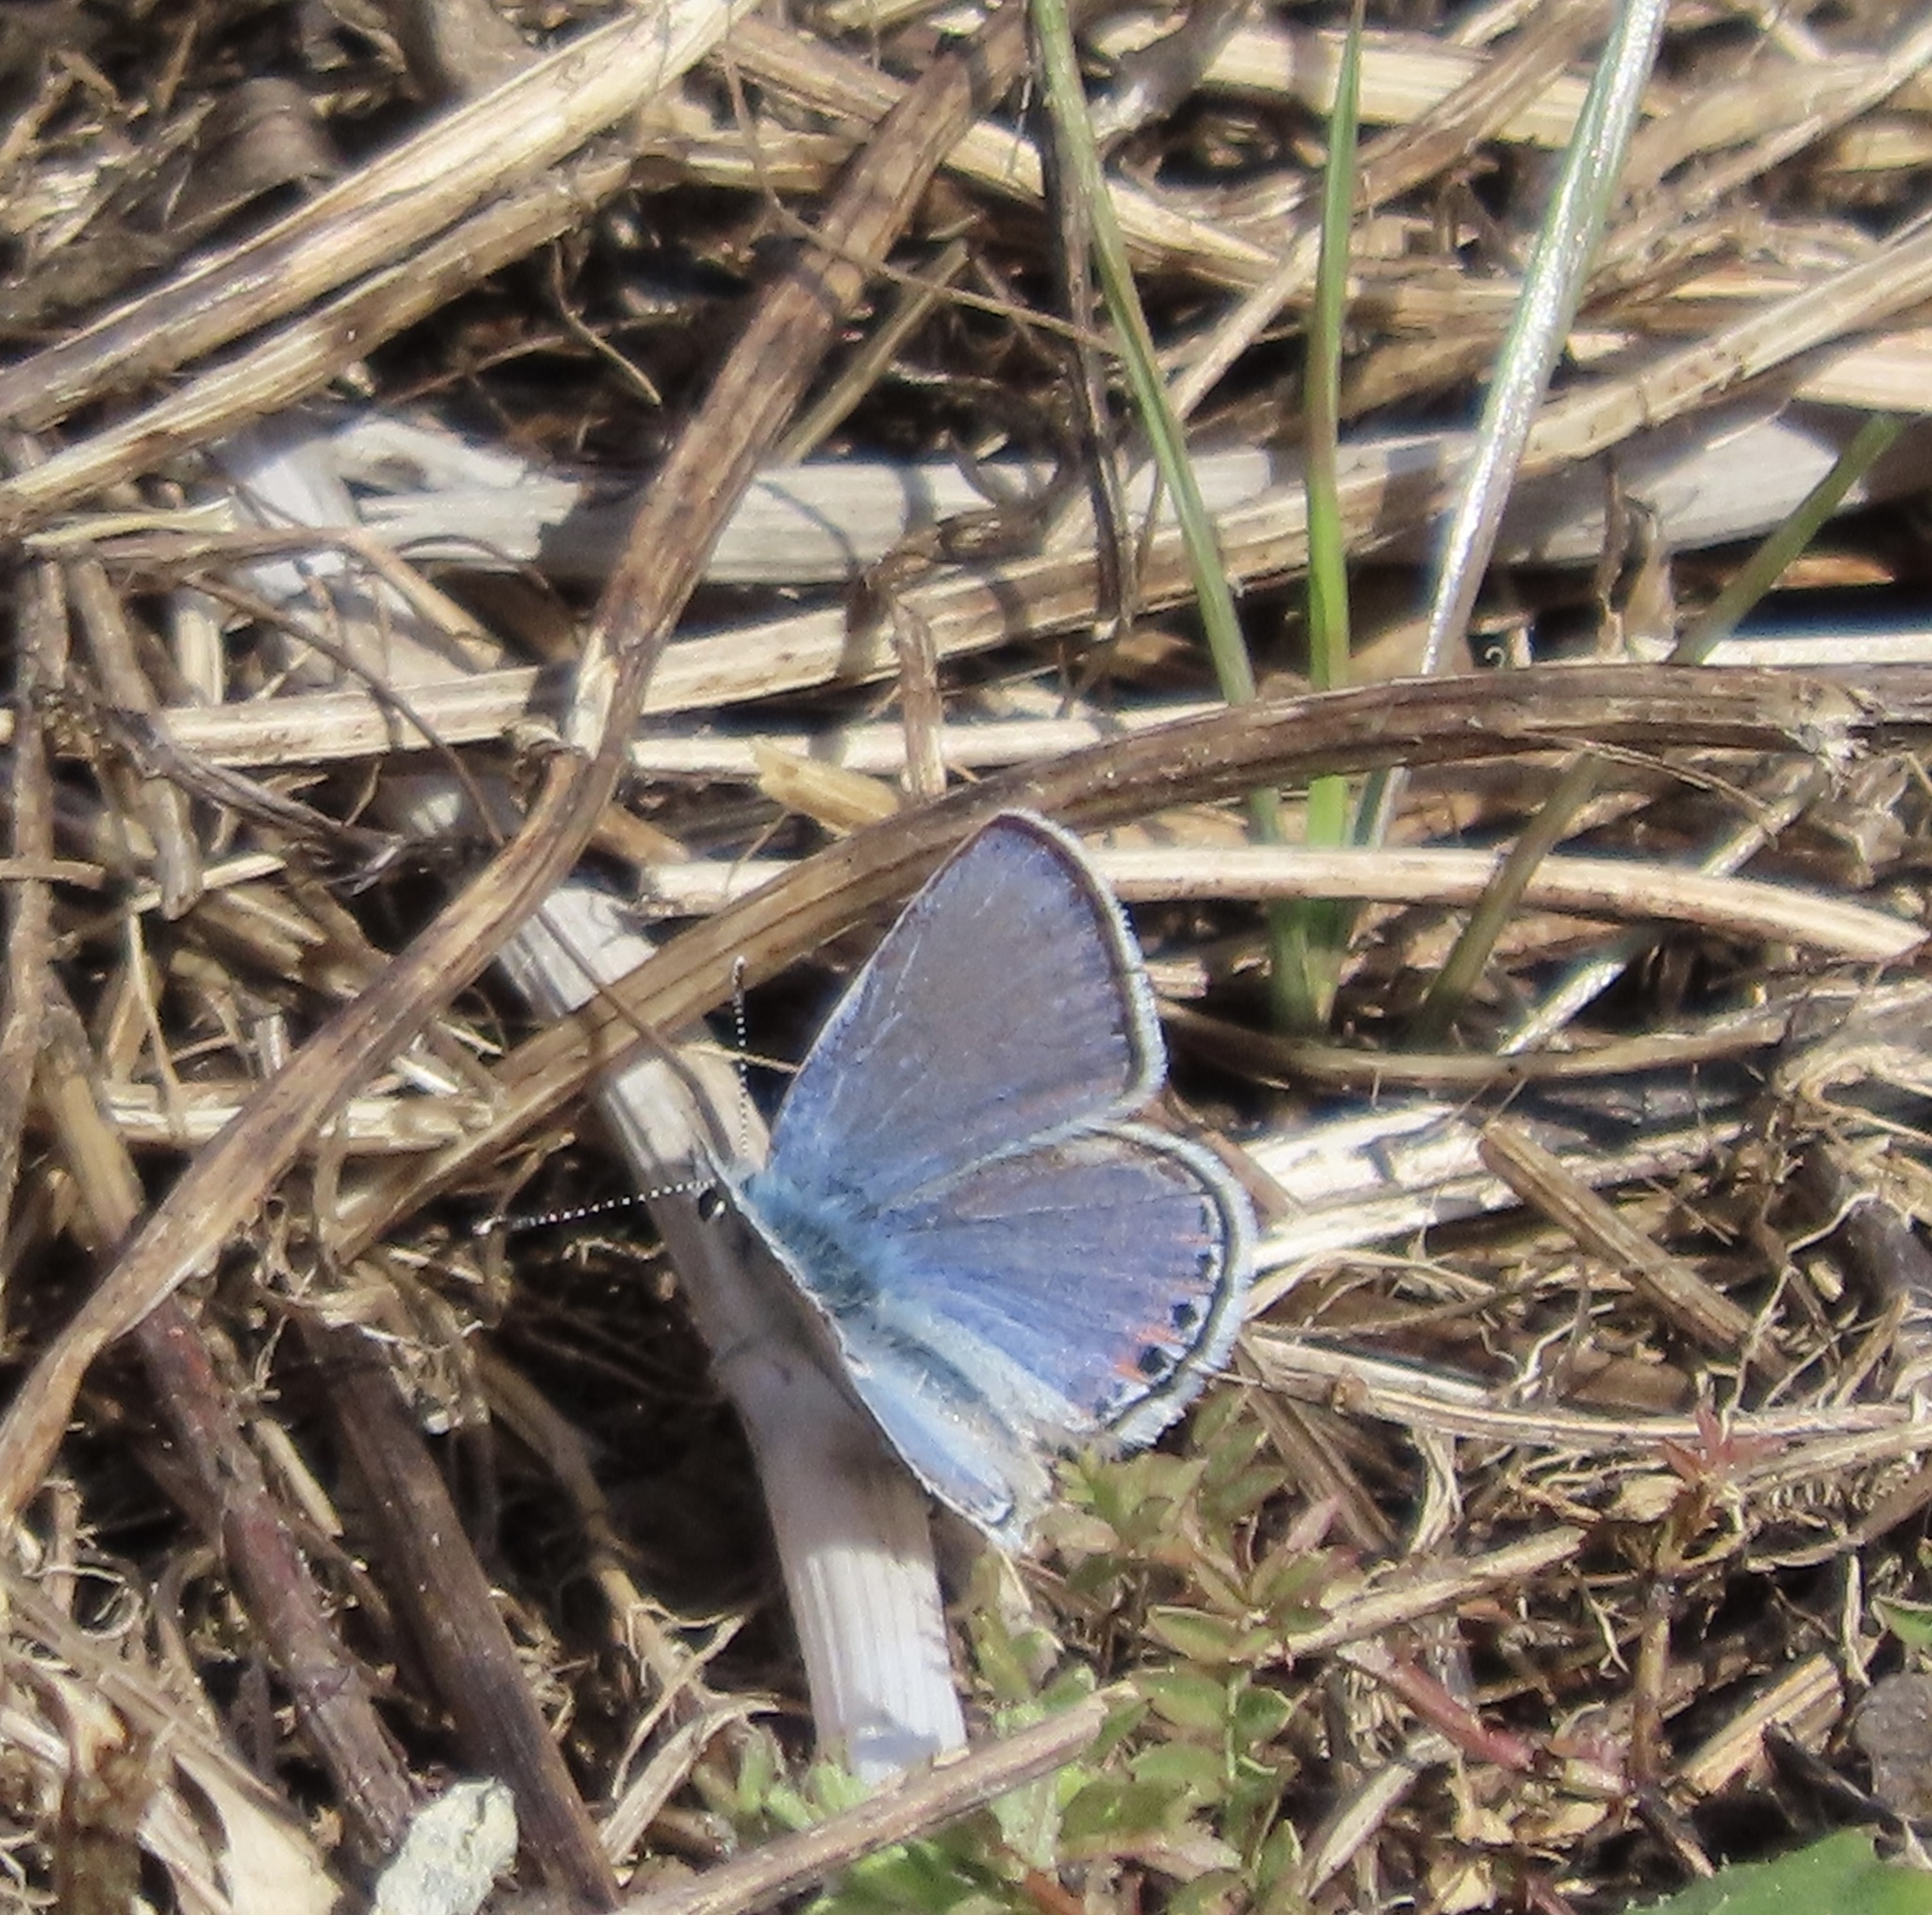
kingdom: Animalia
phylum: Arthropoda
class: Insecta
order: Lepidoptera
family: Lycaenidae
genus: Icaricia
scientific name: Icaricia acmon
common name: Acmon blue
